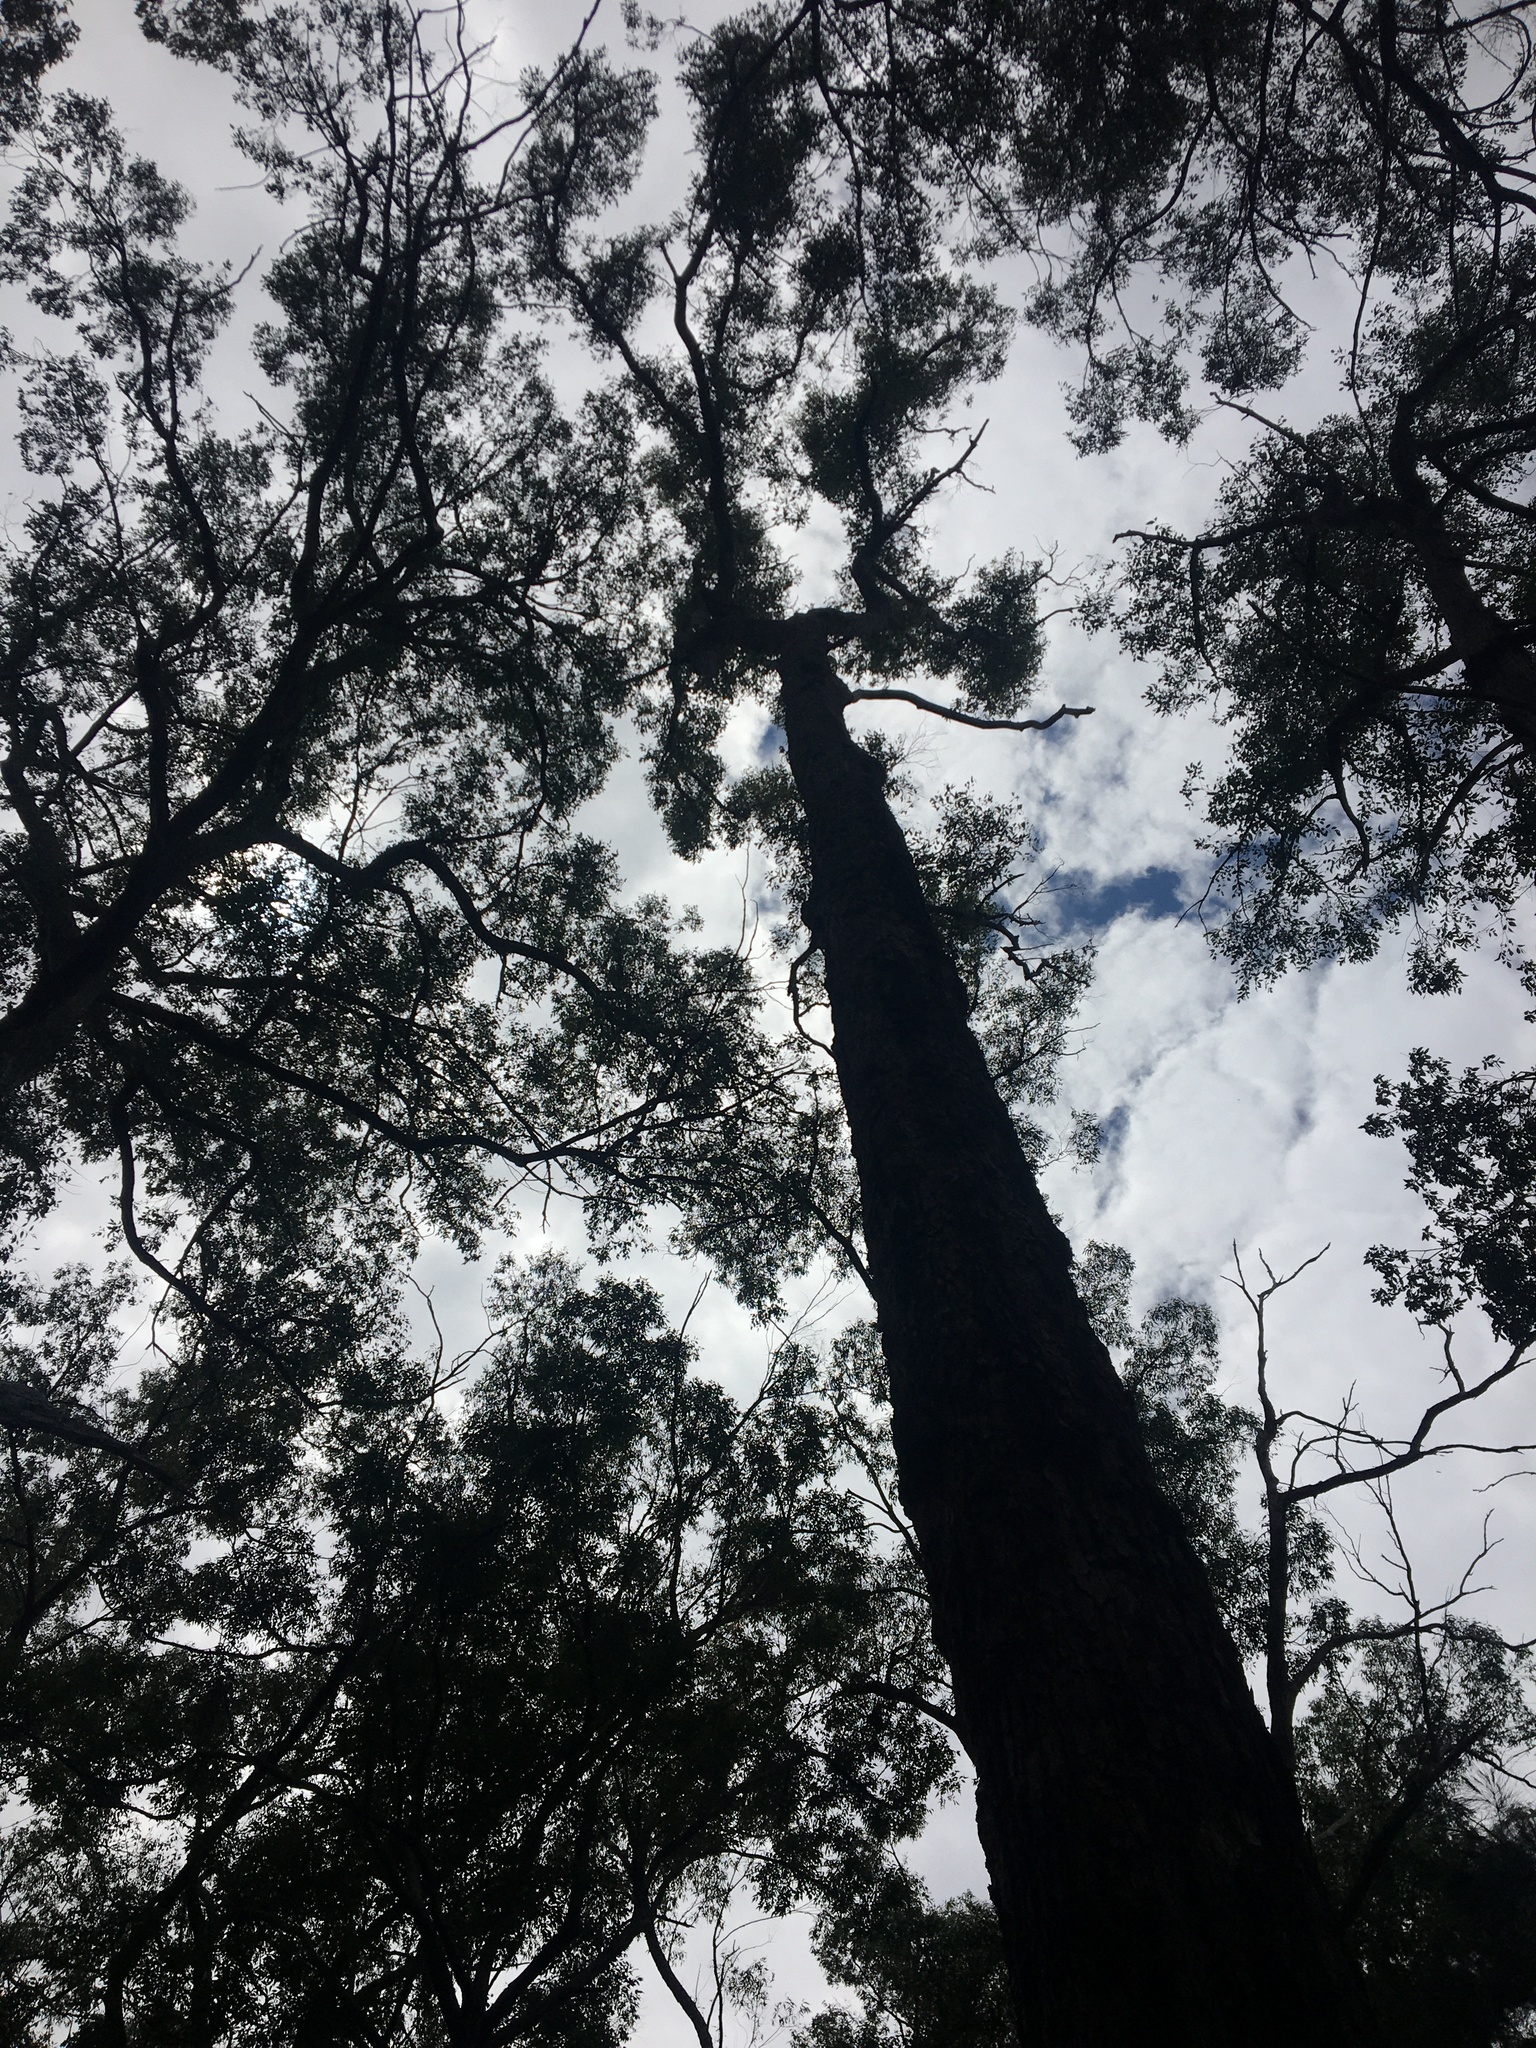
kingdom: Plantae
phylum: Tracheophyta
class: Magnoliopsida
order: Myrtales
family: Myrtaceae
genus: Corymbia
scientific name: Corymbia gummifera
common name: Red bloodwood
